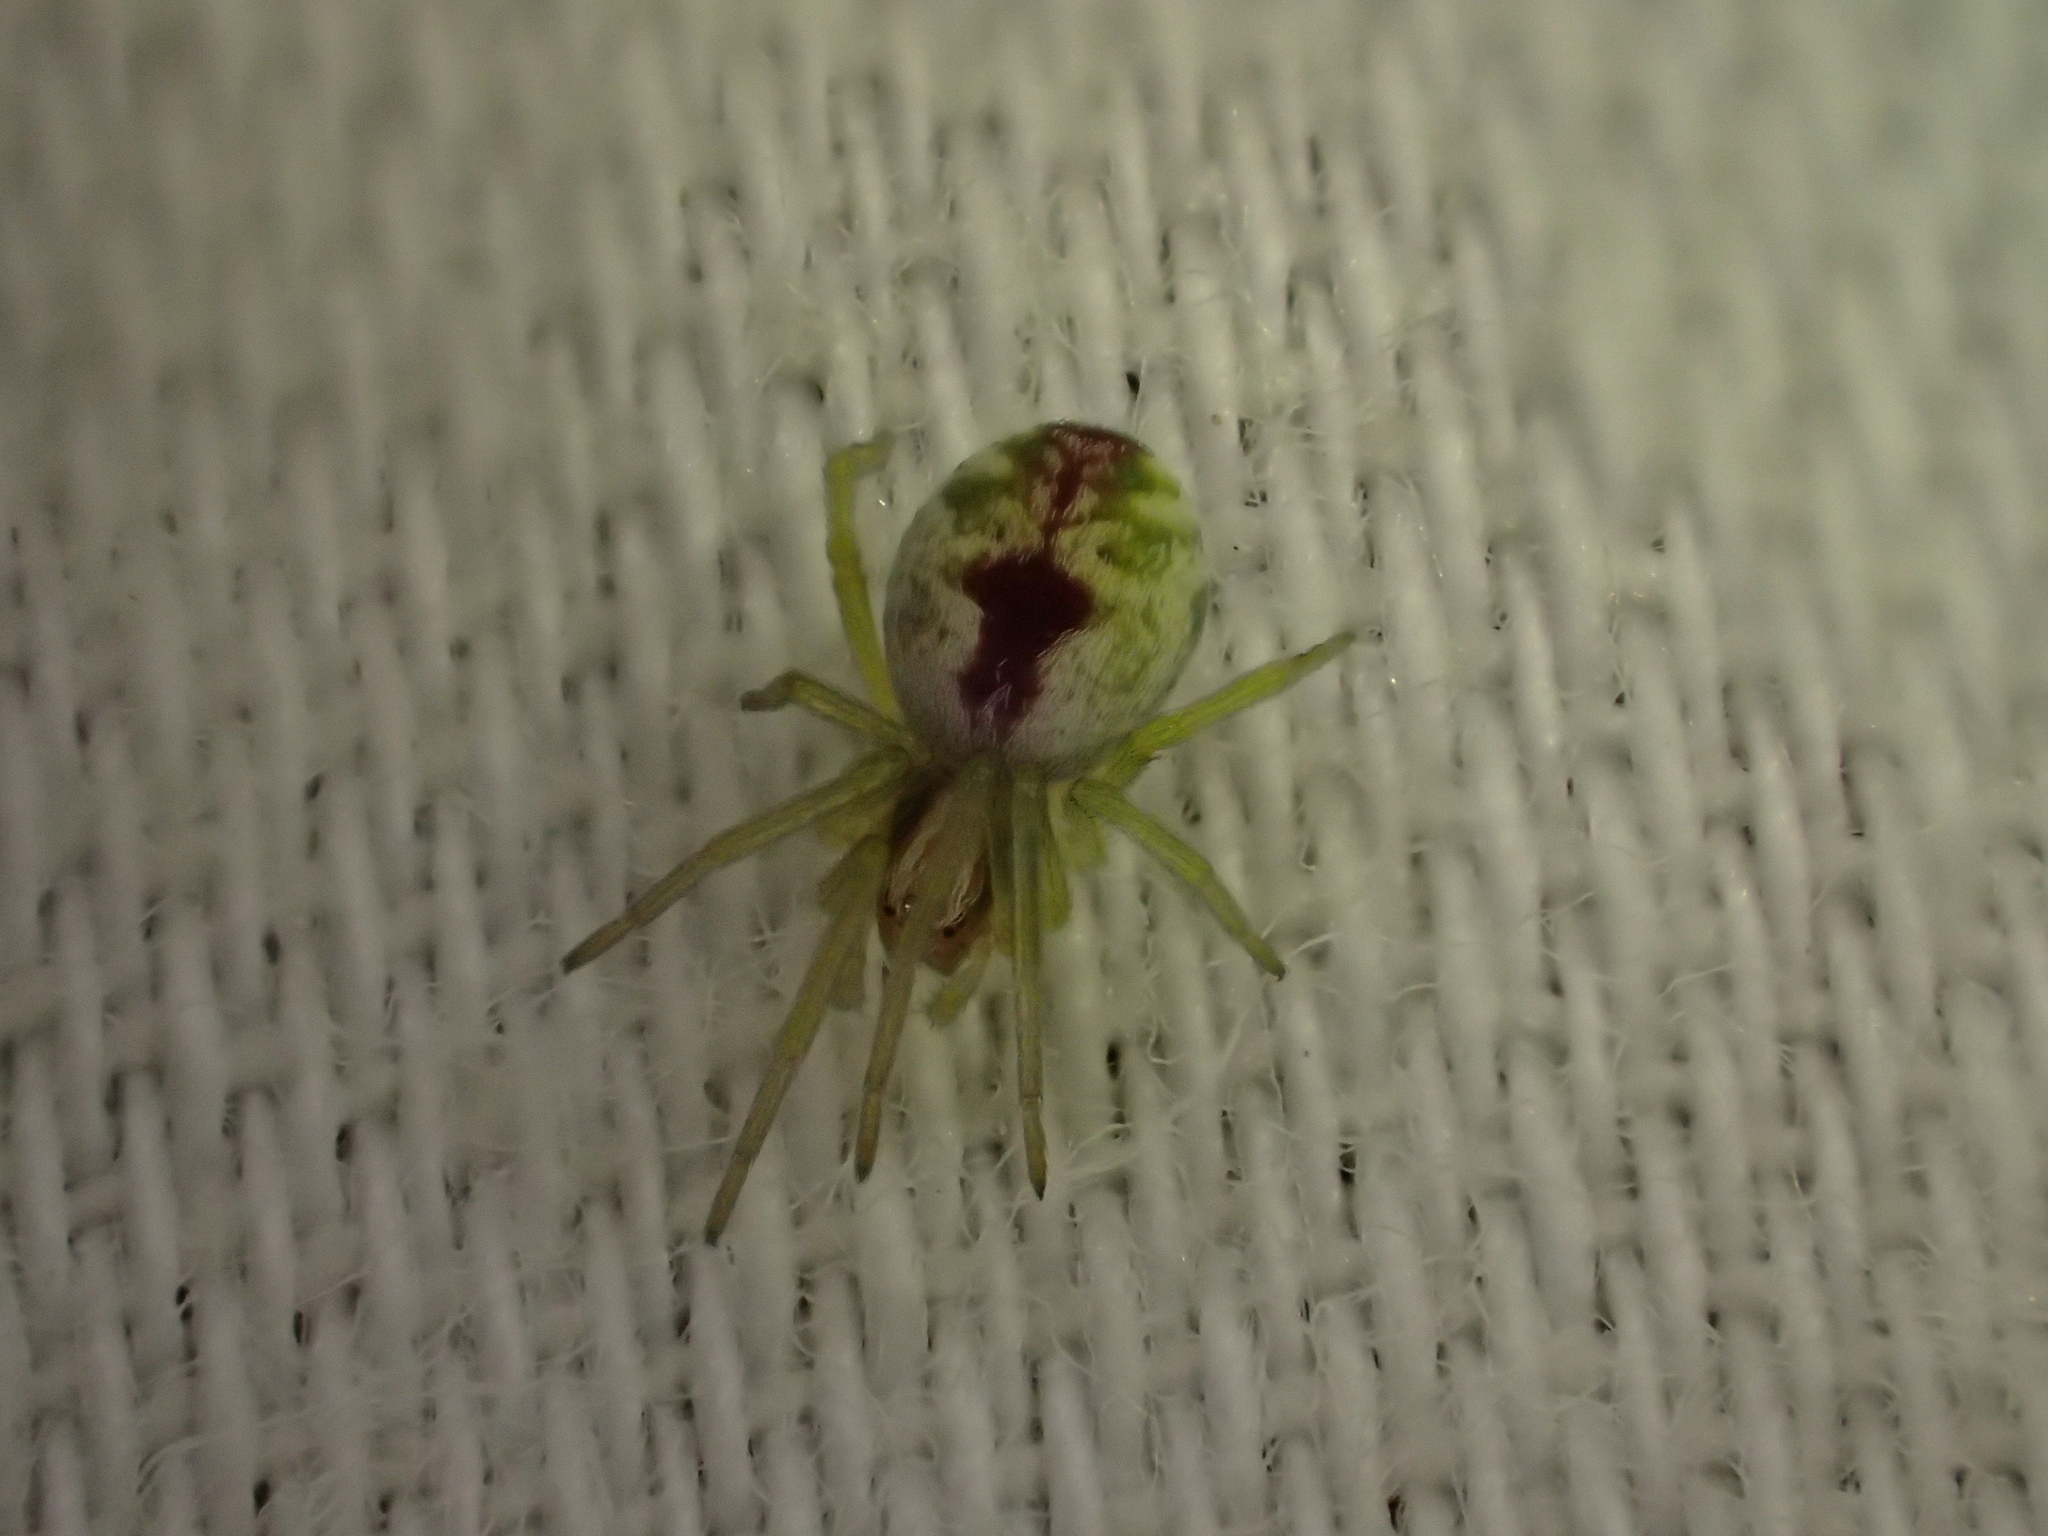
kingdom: Animalia
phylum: Arthropoda
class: Arachnida
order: Araneae
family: Dictynidae
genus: Nigma
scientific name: Nigma puella
